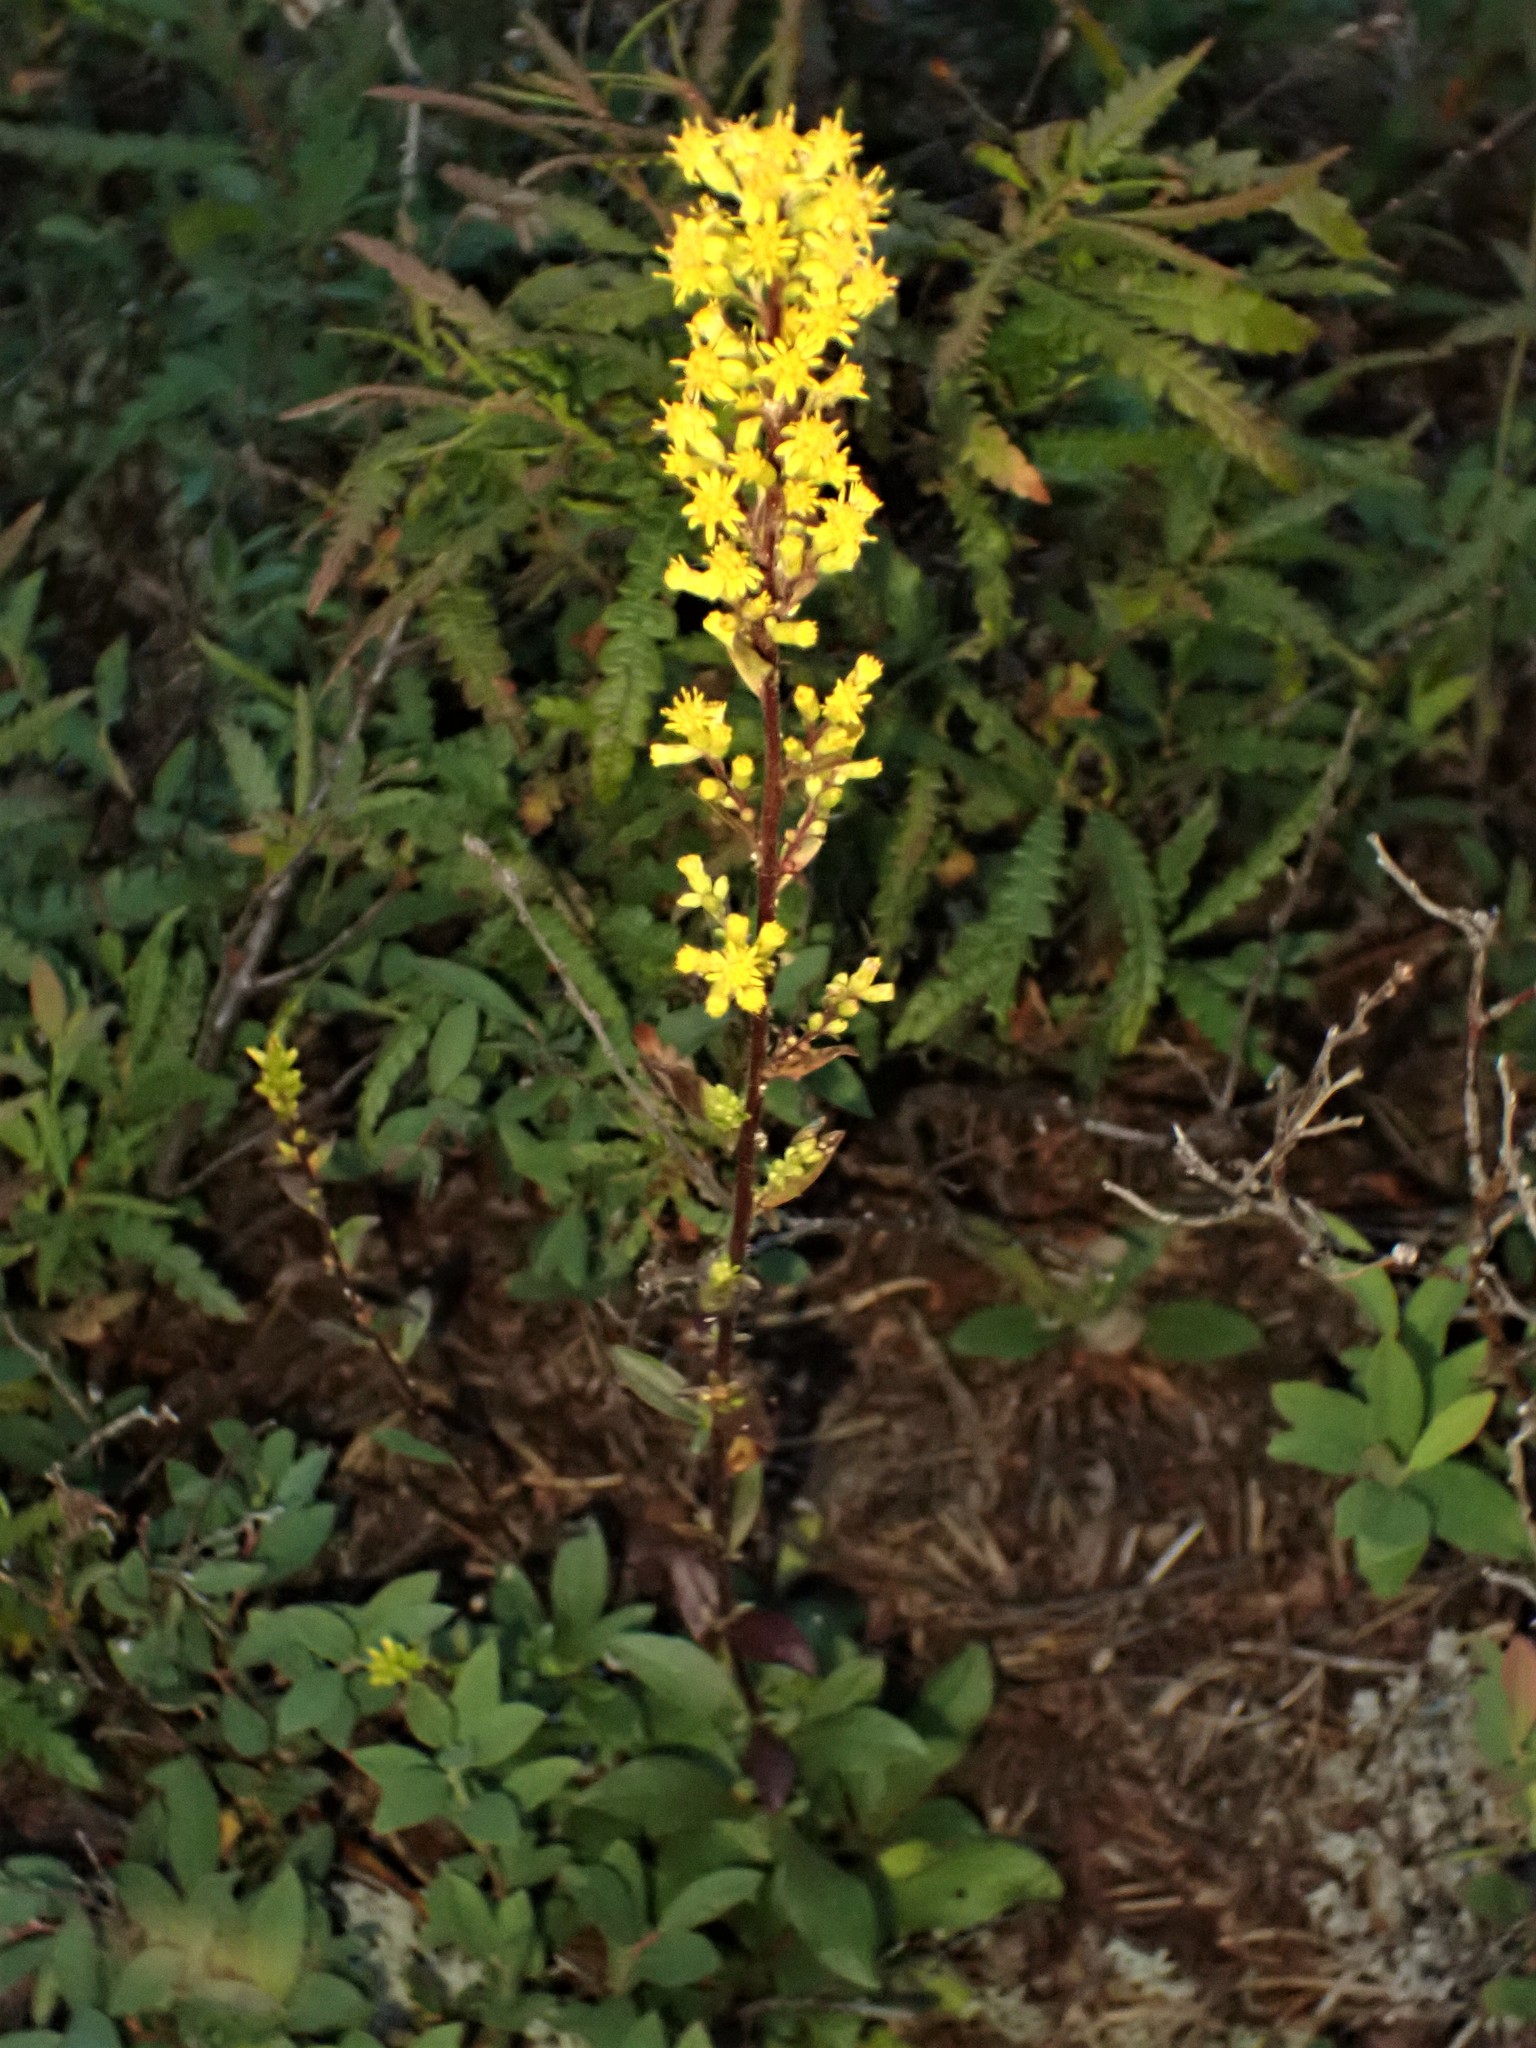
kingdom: Plantae
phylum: Tracheophyta
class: Magnoliopsida
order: Asterales
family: Asteraceae
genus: Solidago
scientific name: Solidago hispida
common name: Hairy goldenrod
